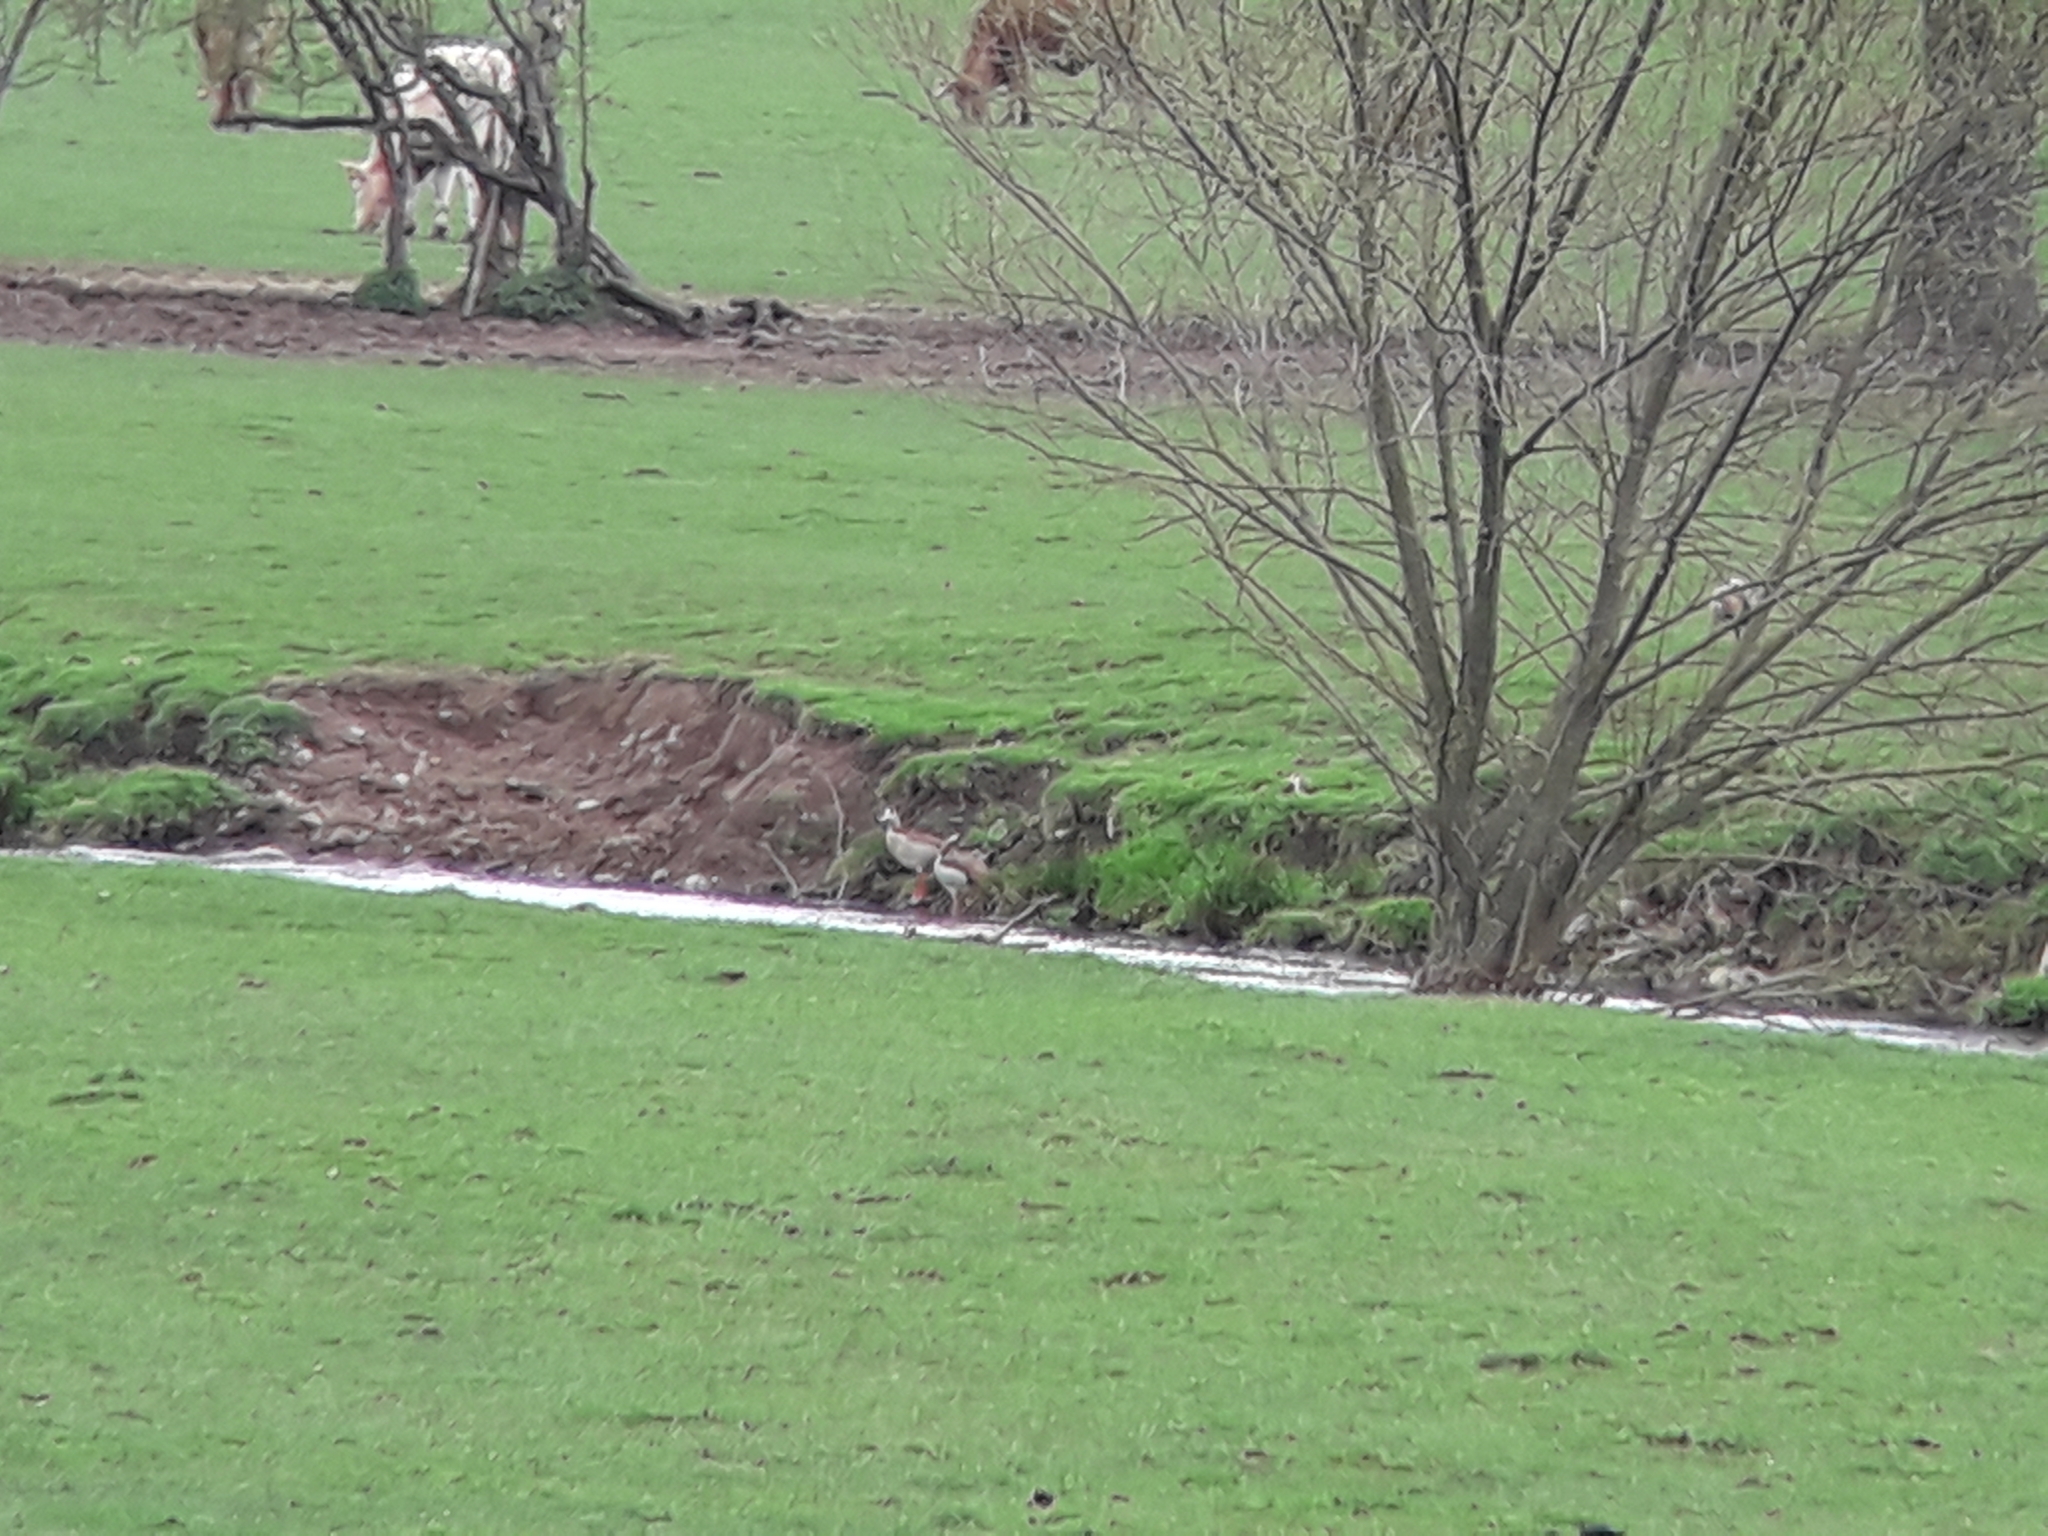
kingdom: Animalia
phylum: Chordata
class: Aves
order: Anseriformes
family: Anatidae
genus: Alopochen
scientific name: Alopochen aegyptiaca
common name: Egyptian goose
